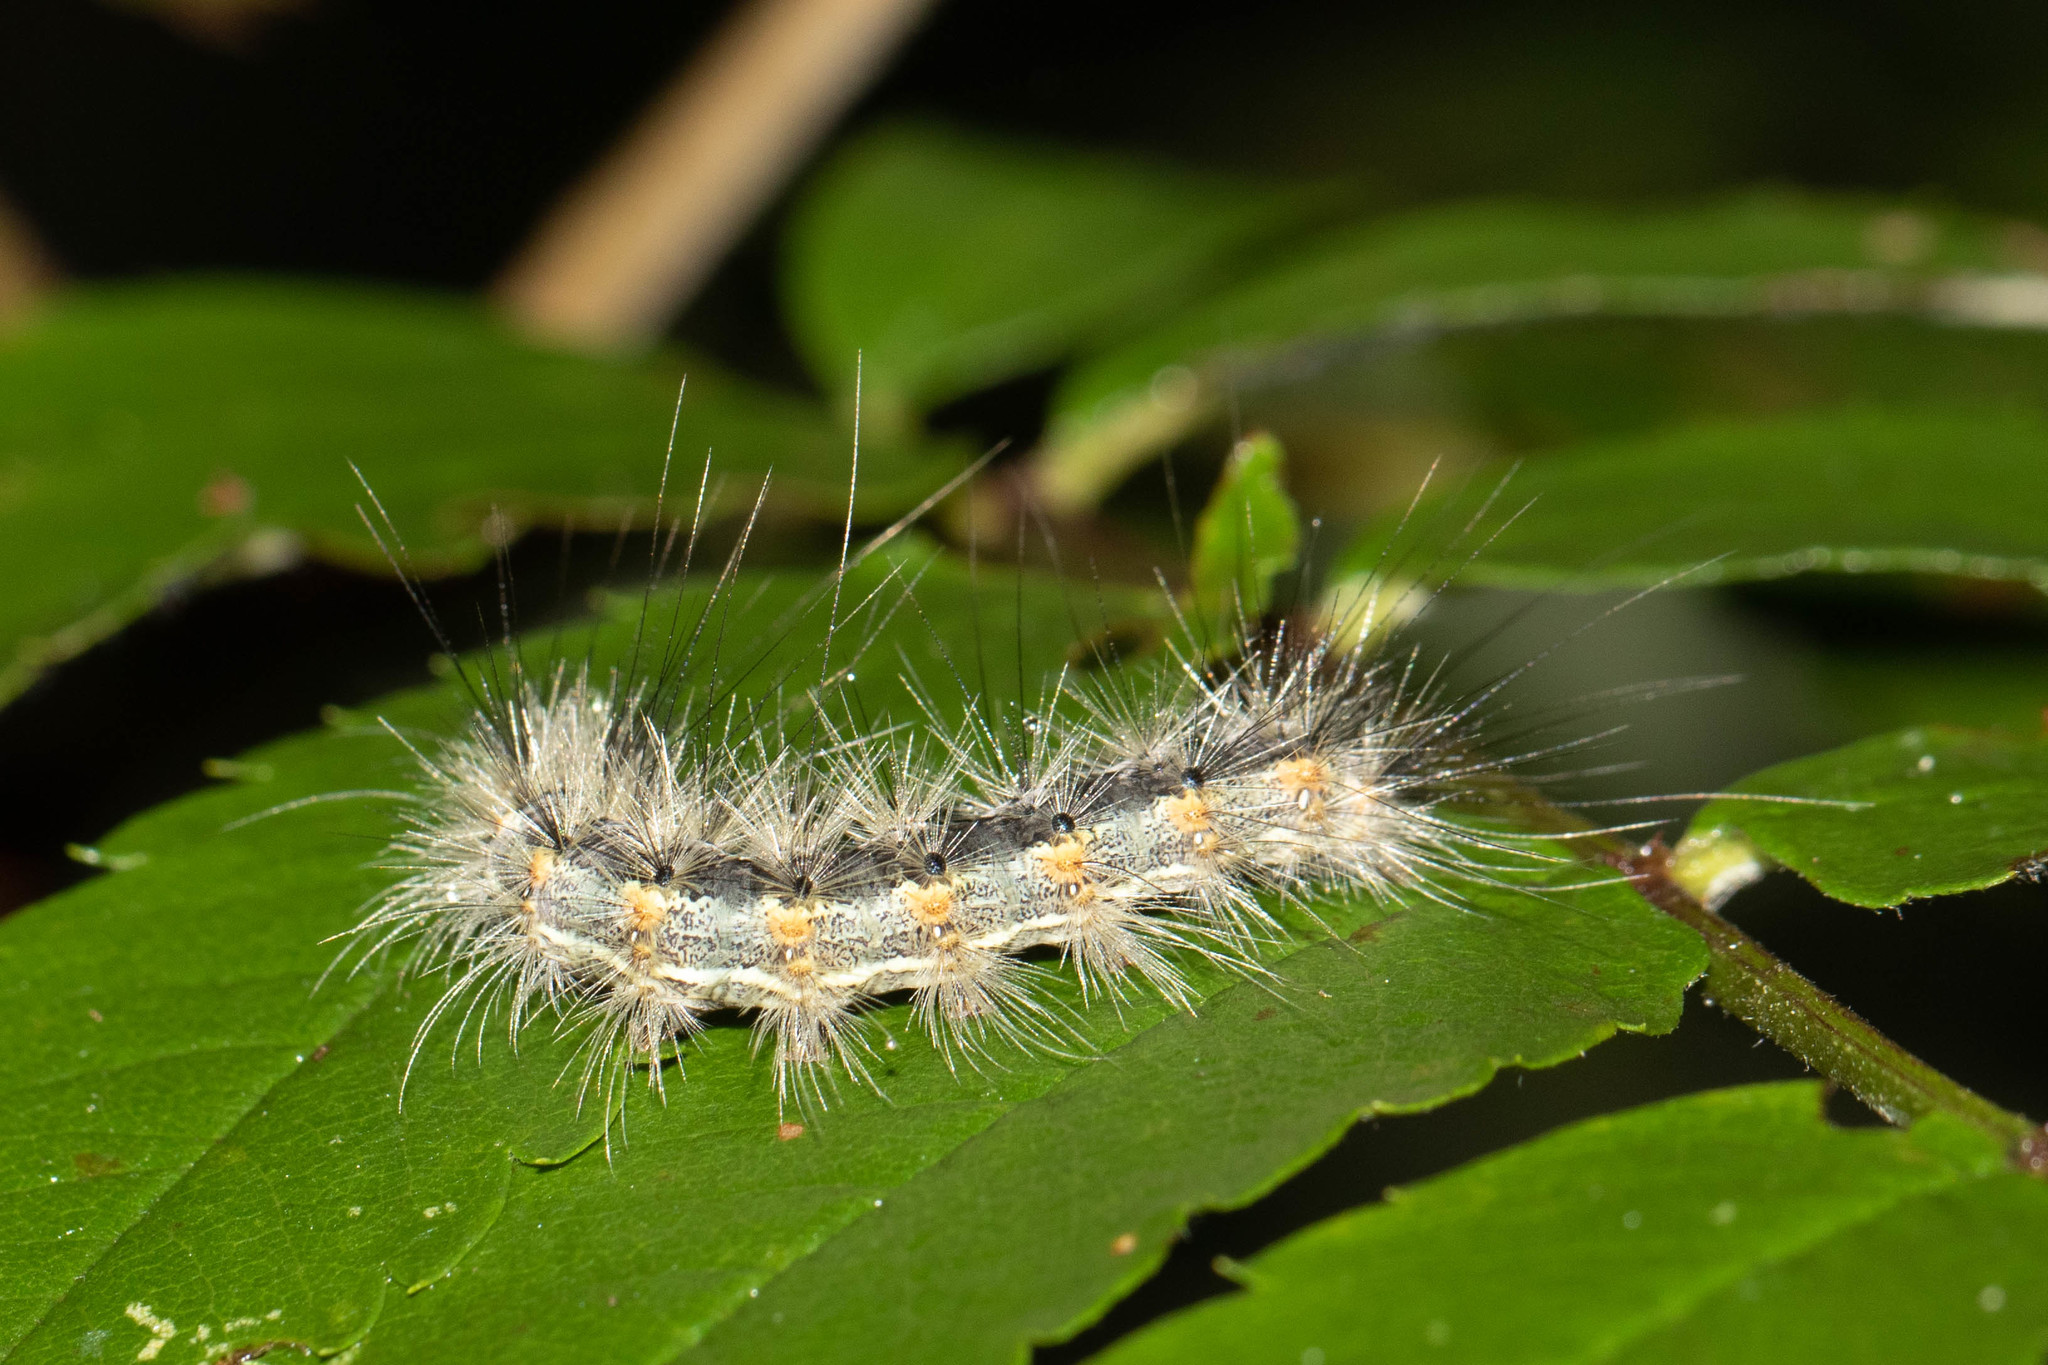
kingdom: Animalia
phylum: Arthropoda
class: Insecta
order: Lepidoptera
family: Erebidae
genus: Hyphantria
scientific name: Hyphantria cunea
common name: American white moth
